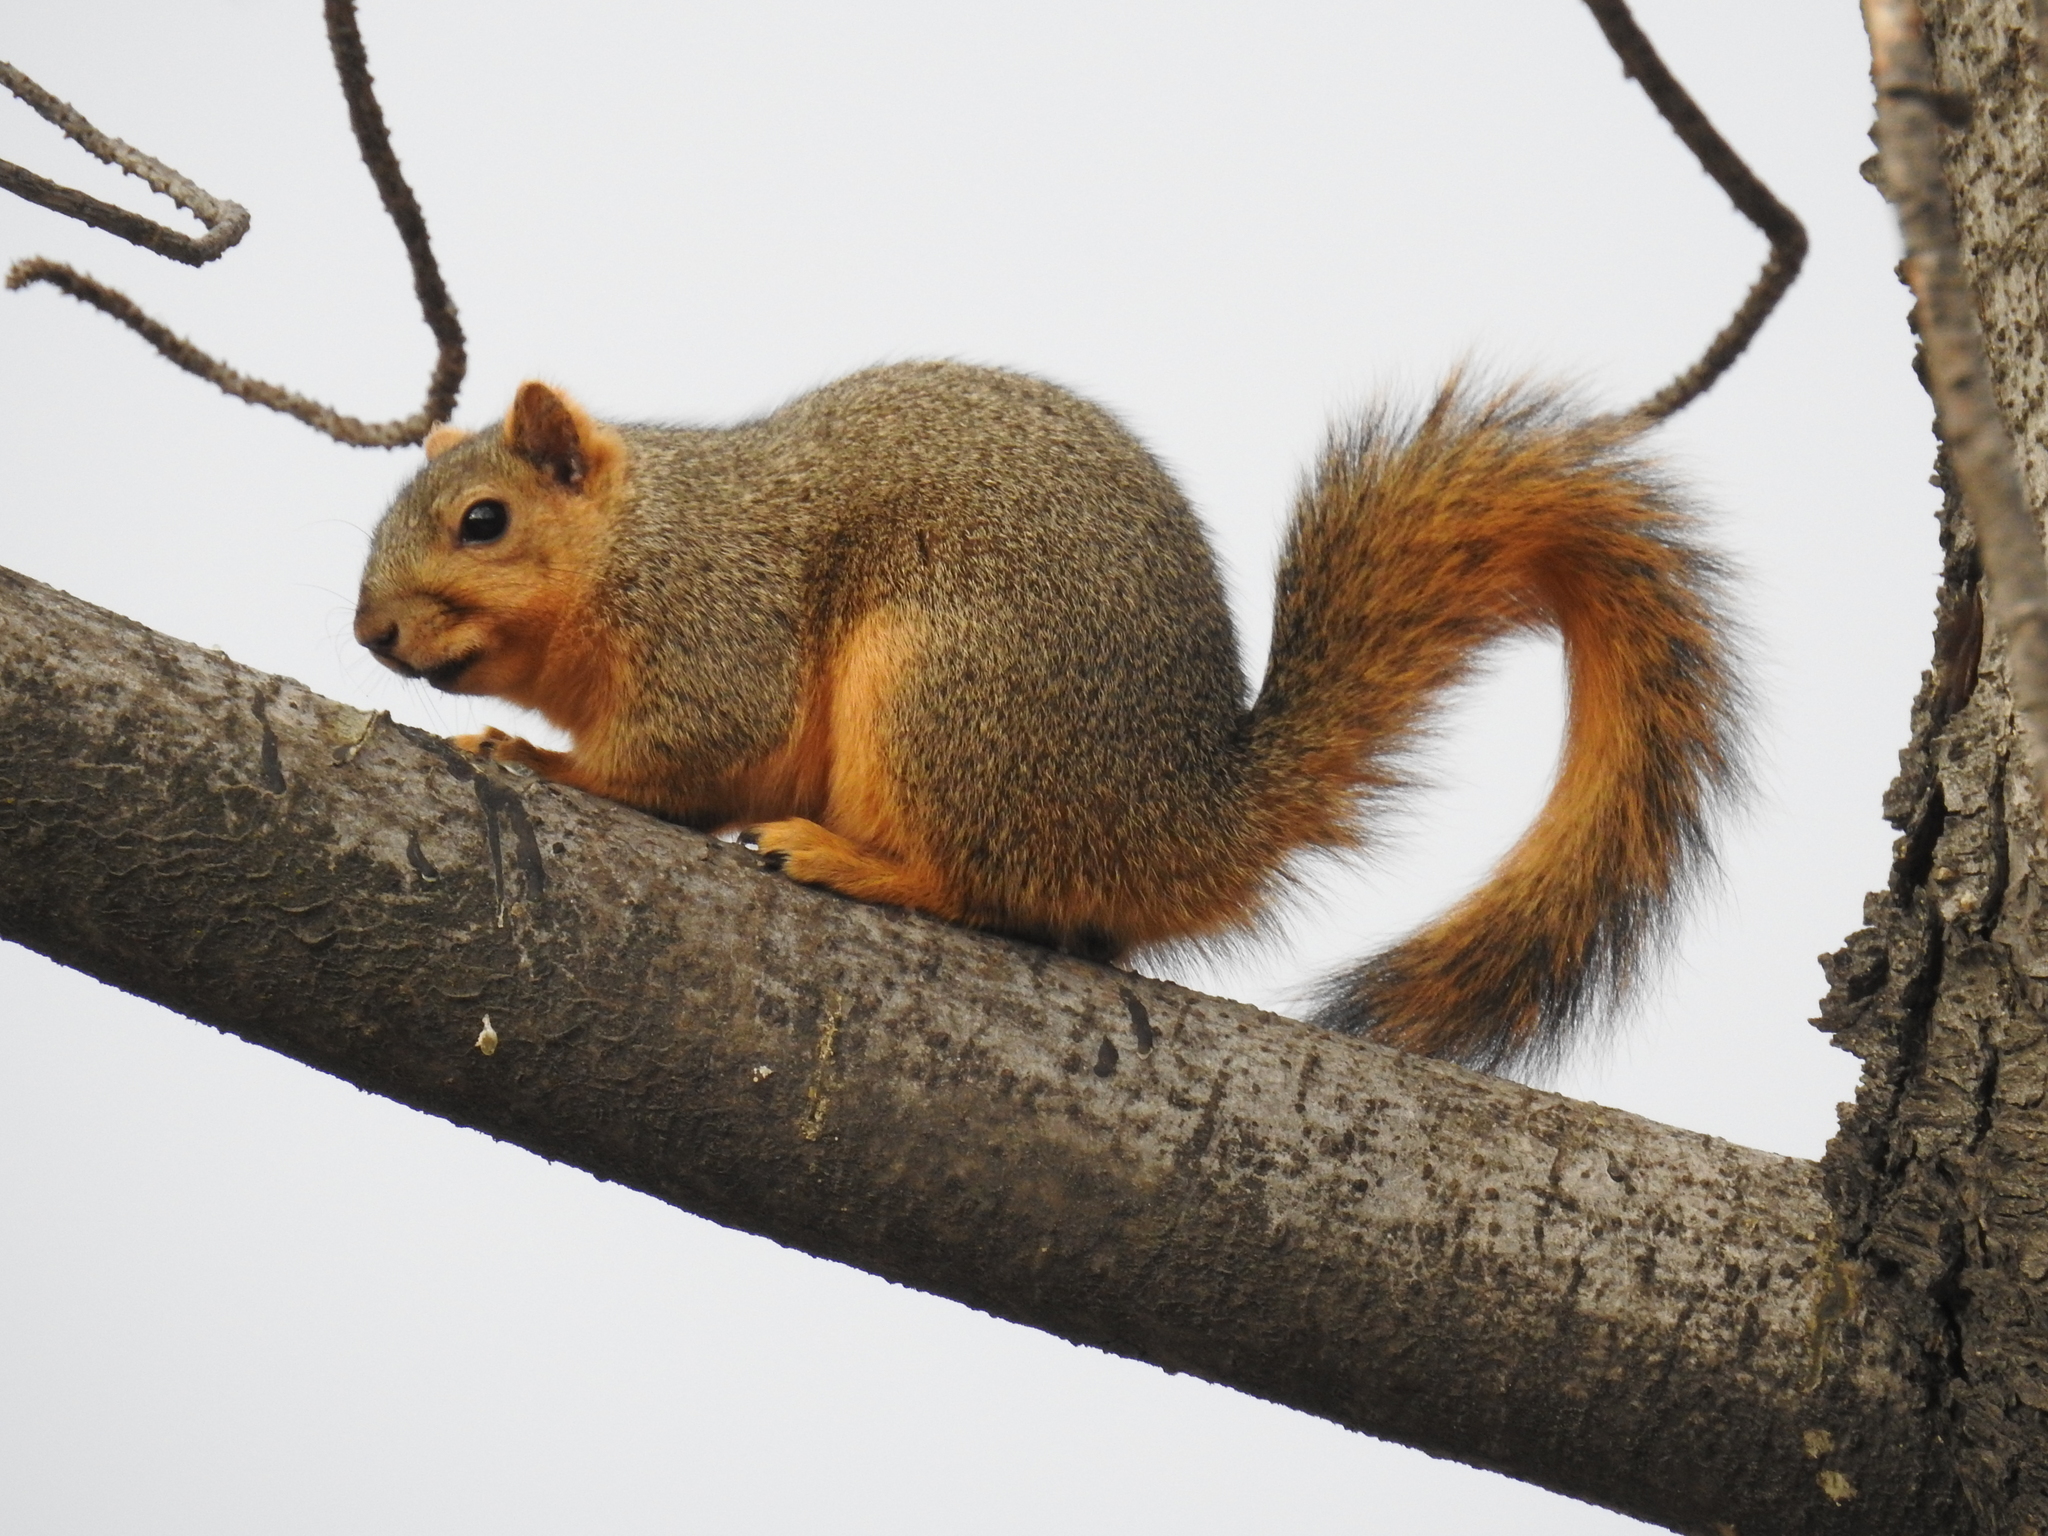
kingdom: Animalia
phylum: Chordata
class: Mammalia
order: Rodentia
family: Sciuridae
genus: Sciurus
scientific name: Sciurus niger
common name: Fox squirrel
